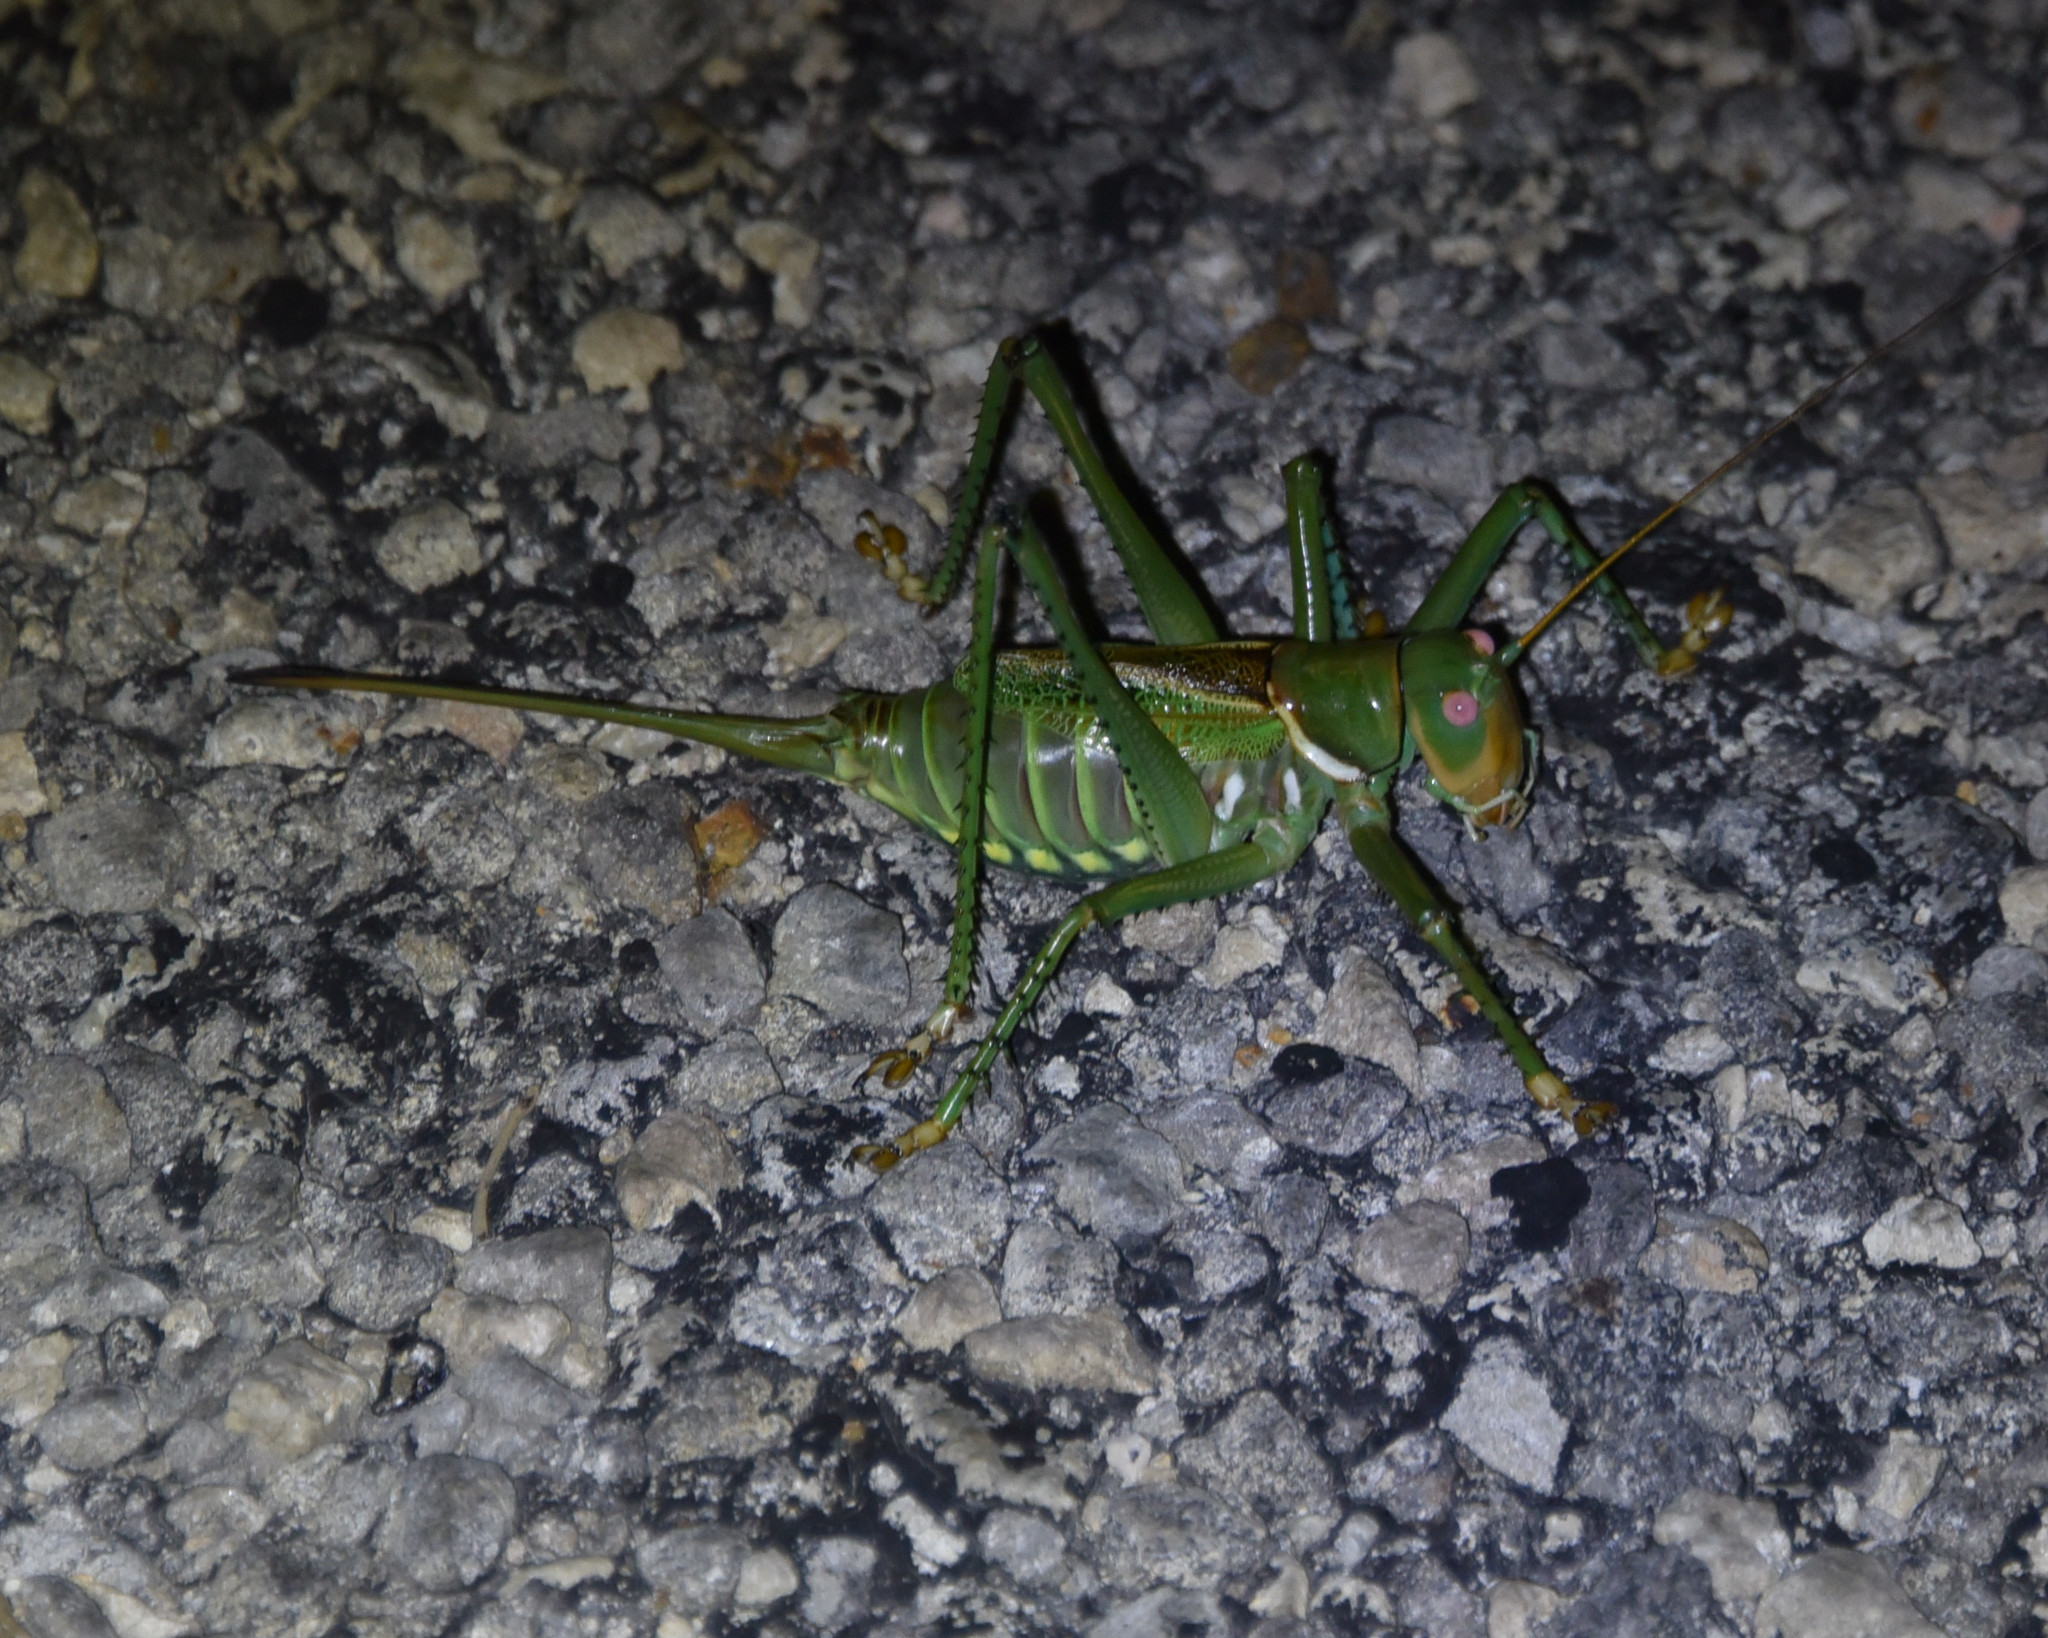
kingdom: Animalia
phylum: Arthropoda
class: Insecta
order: Orthoptera
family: Tettigoniidae
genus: Neobarrettia
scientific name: Neobarrettia spinosa
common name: Greater arid-land katydid
